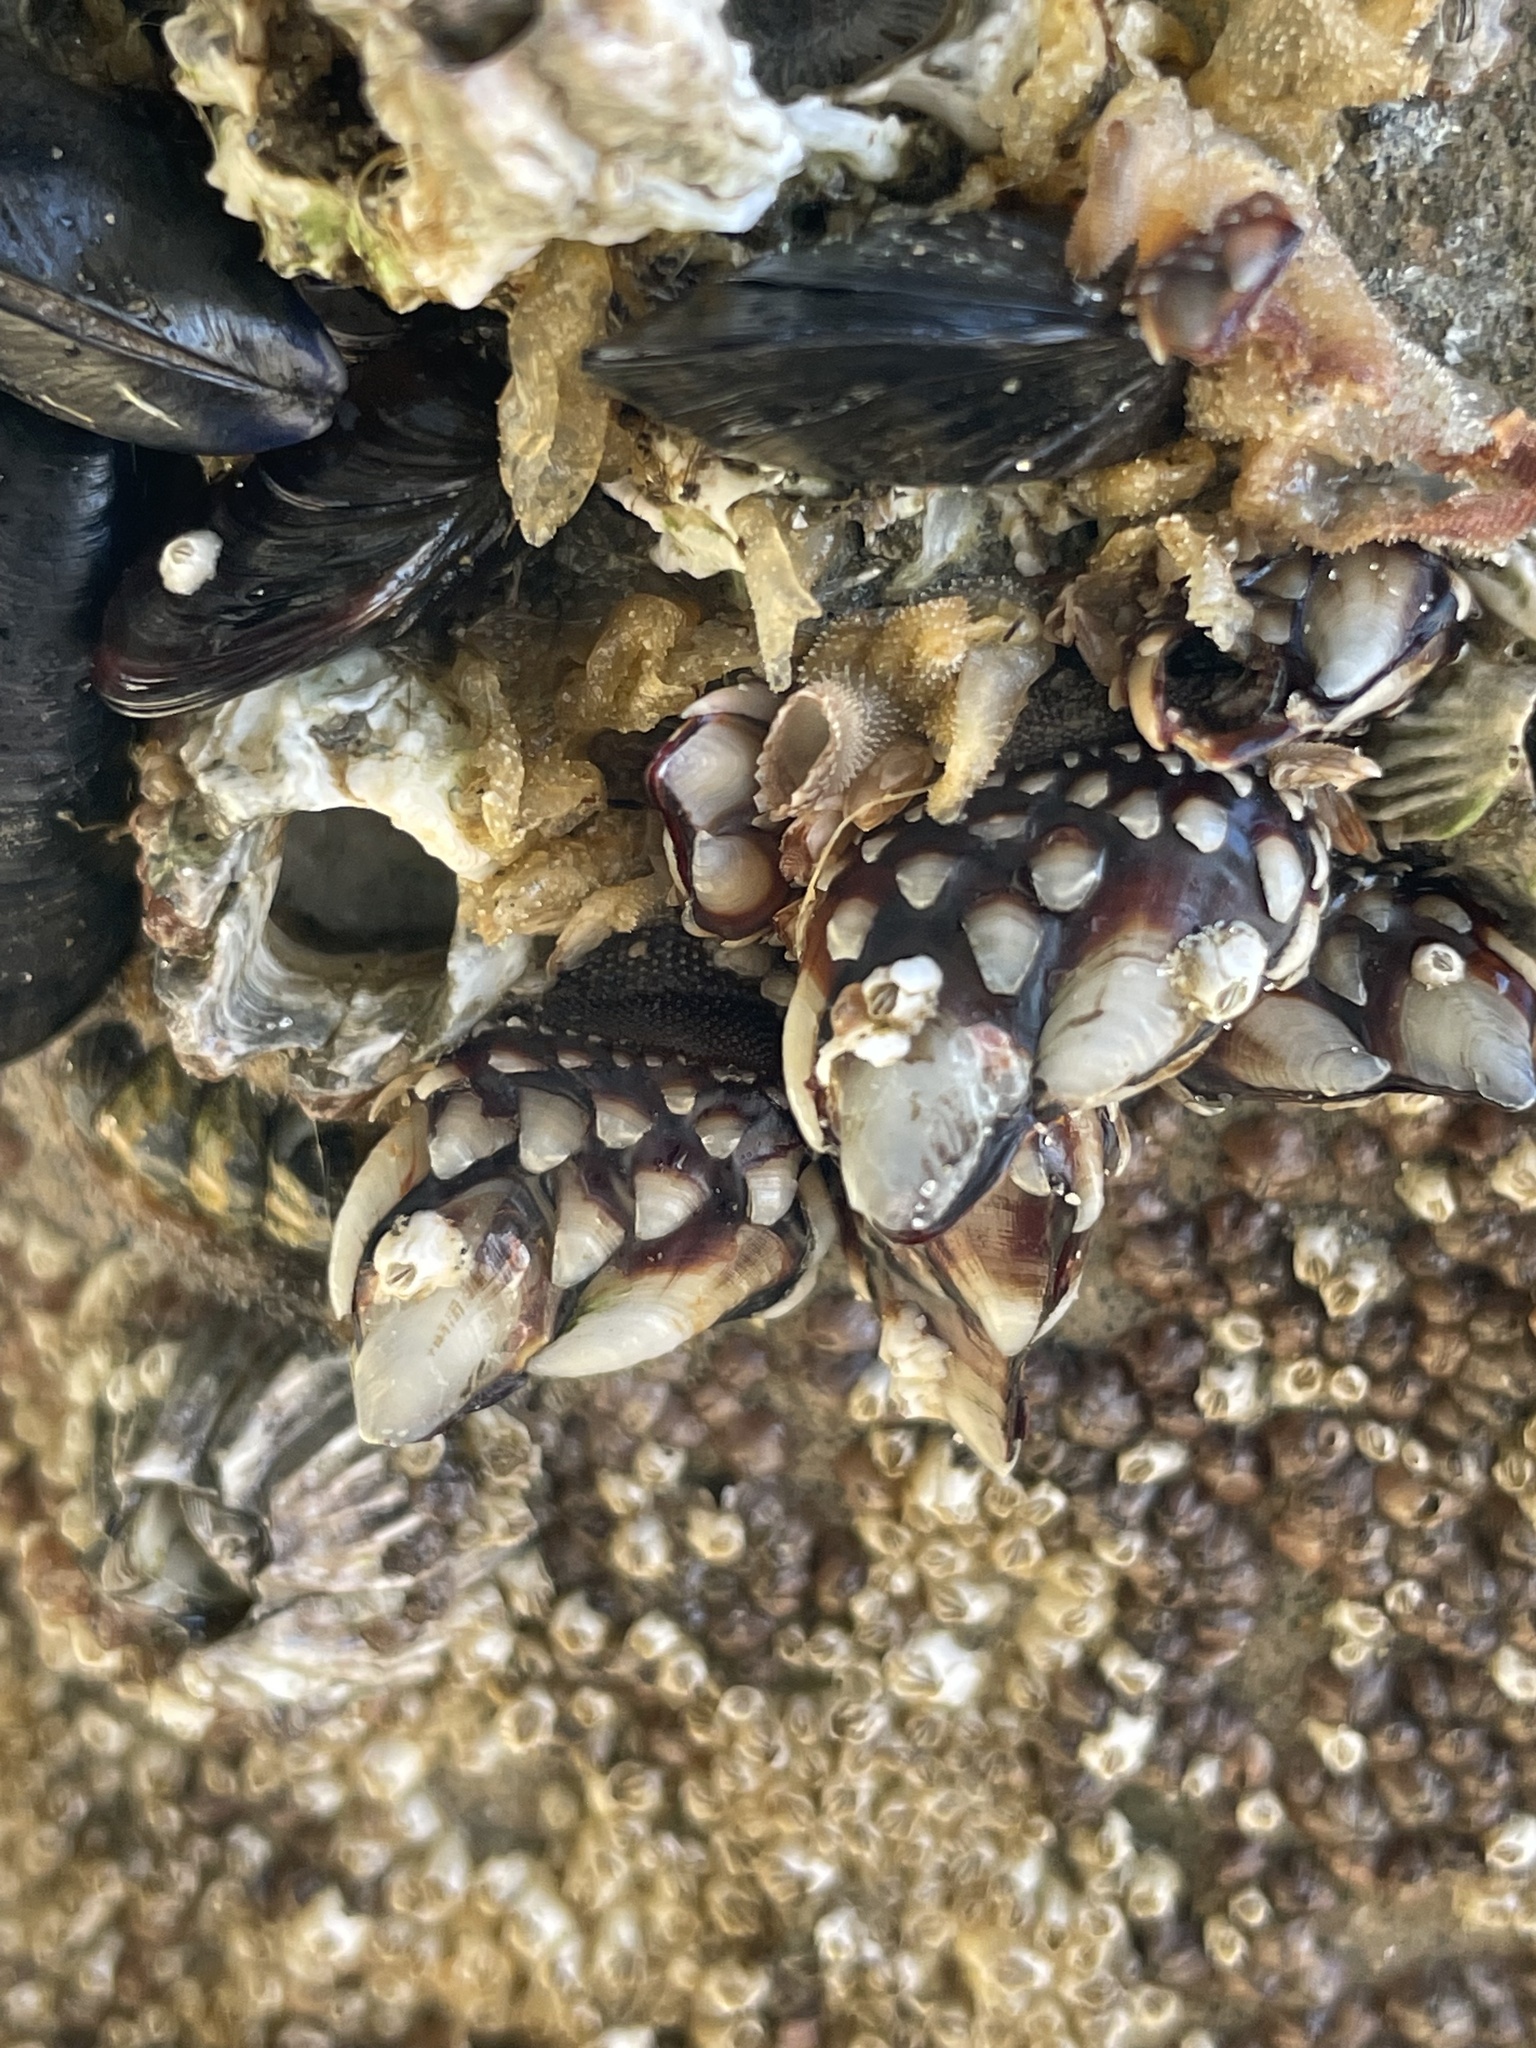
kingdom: Animalia
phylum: Arthropoda
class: Maxillopoda
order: Pedunculata
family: Pollicipedidae
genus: Pollicipes
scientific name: Pollicipes polymerus
